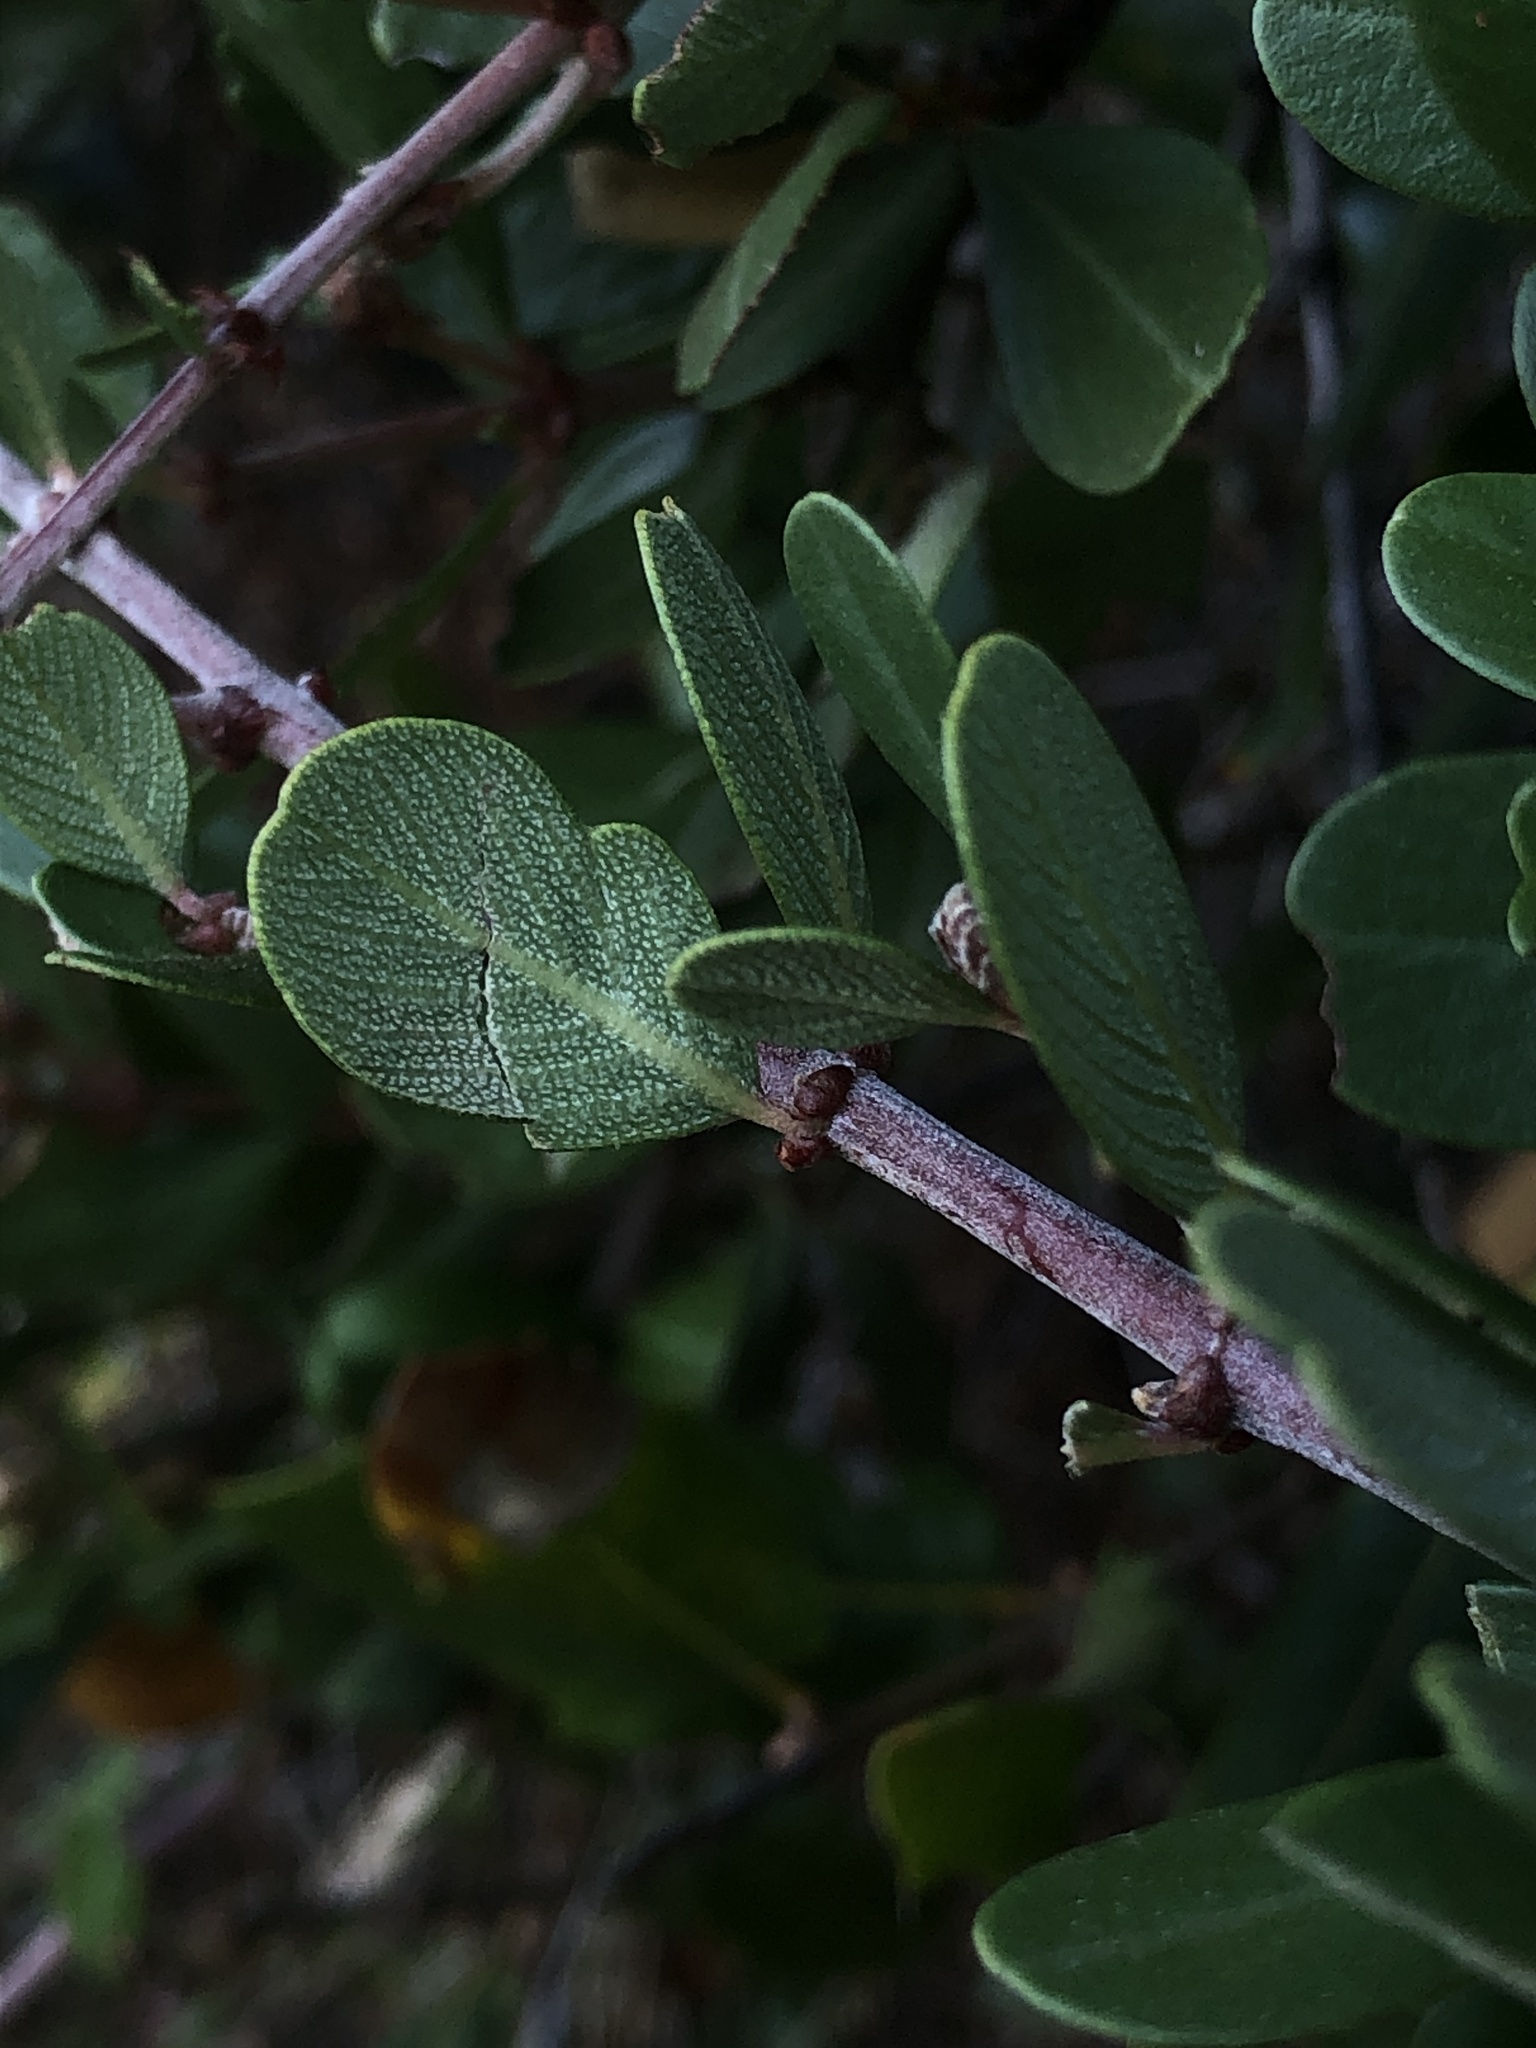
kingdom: Plantae
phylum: Tracheophyta
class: Magnoliopsida
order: Rosales
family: Rhamnaceae
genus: Ceanothus
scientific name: Ceanothus cuneatus
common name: Cuneate ceanothus
